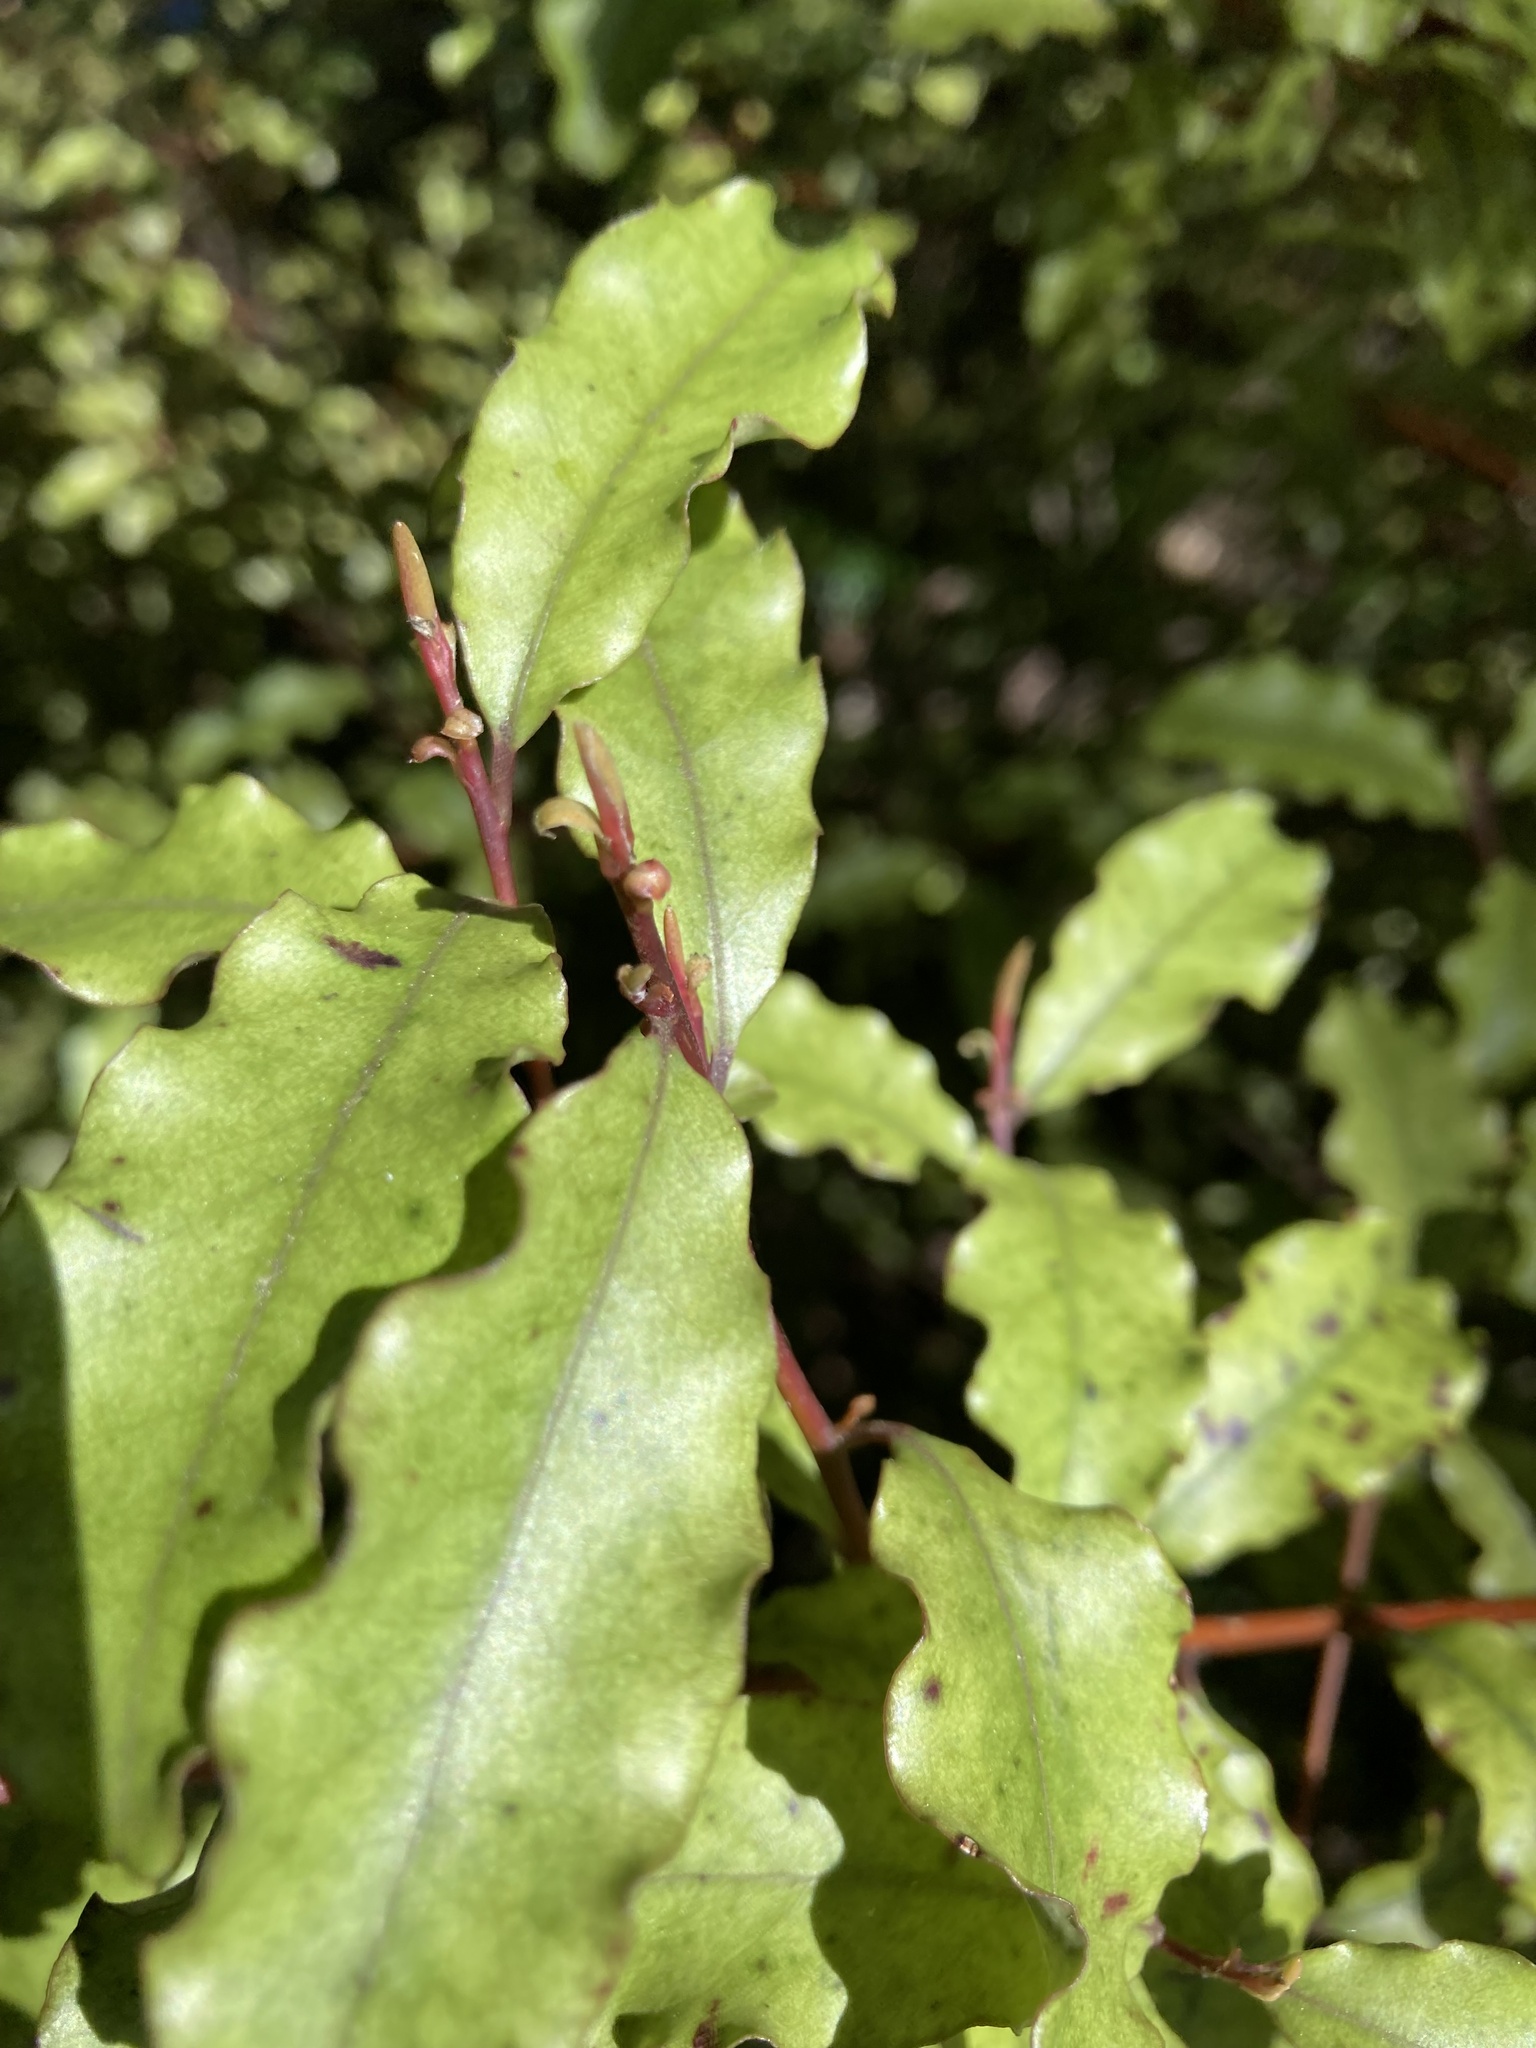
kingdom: Plantae
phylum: Tracheophyta
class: Magnoliopsida
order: Ericales
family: Primulaceae
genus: Myrsine
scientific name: Myrsine australis
